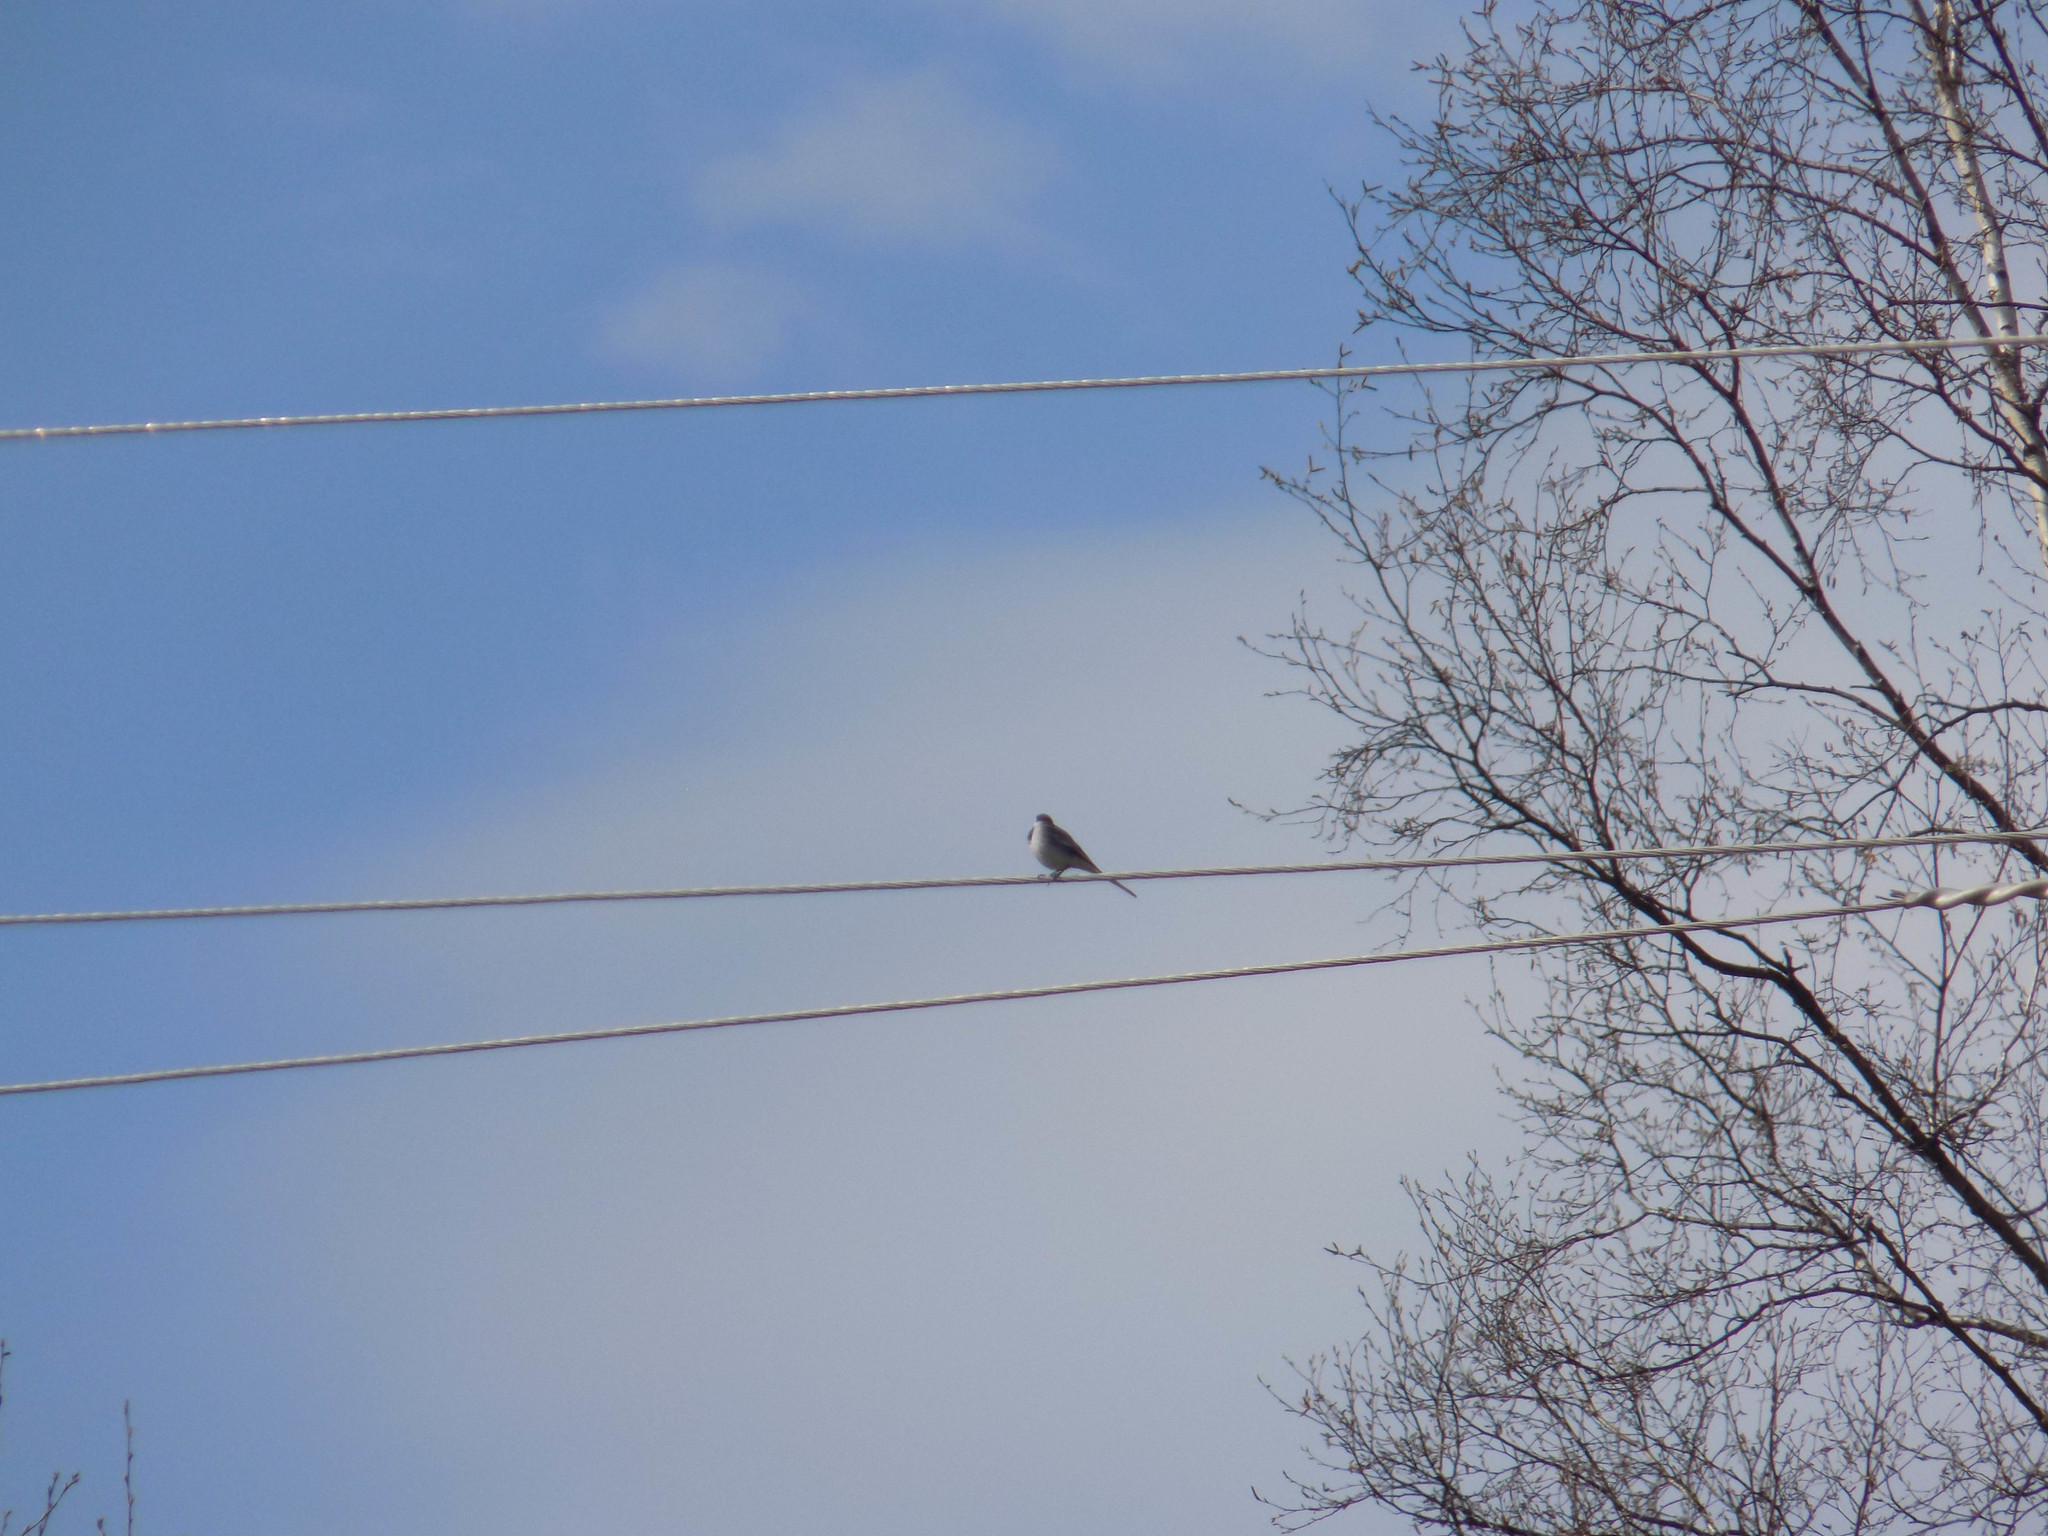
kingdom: Animalia
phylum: Chordata
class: Aves
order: Passeriformes
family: Motacillidae
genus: Motacilla
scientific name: Motacilla alba
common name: White wagtail
